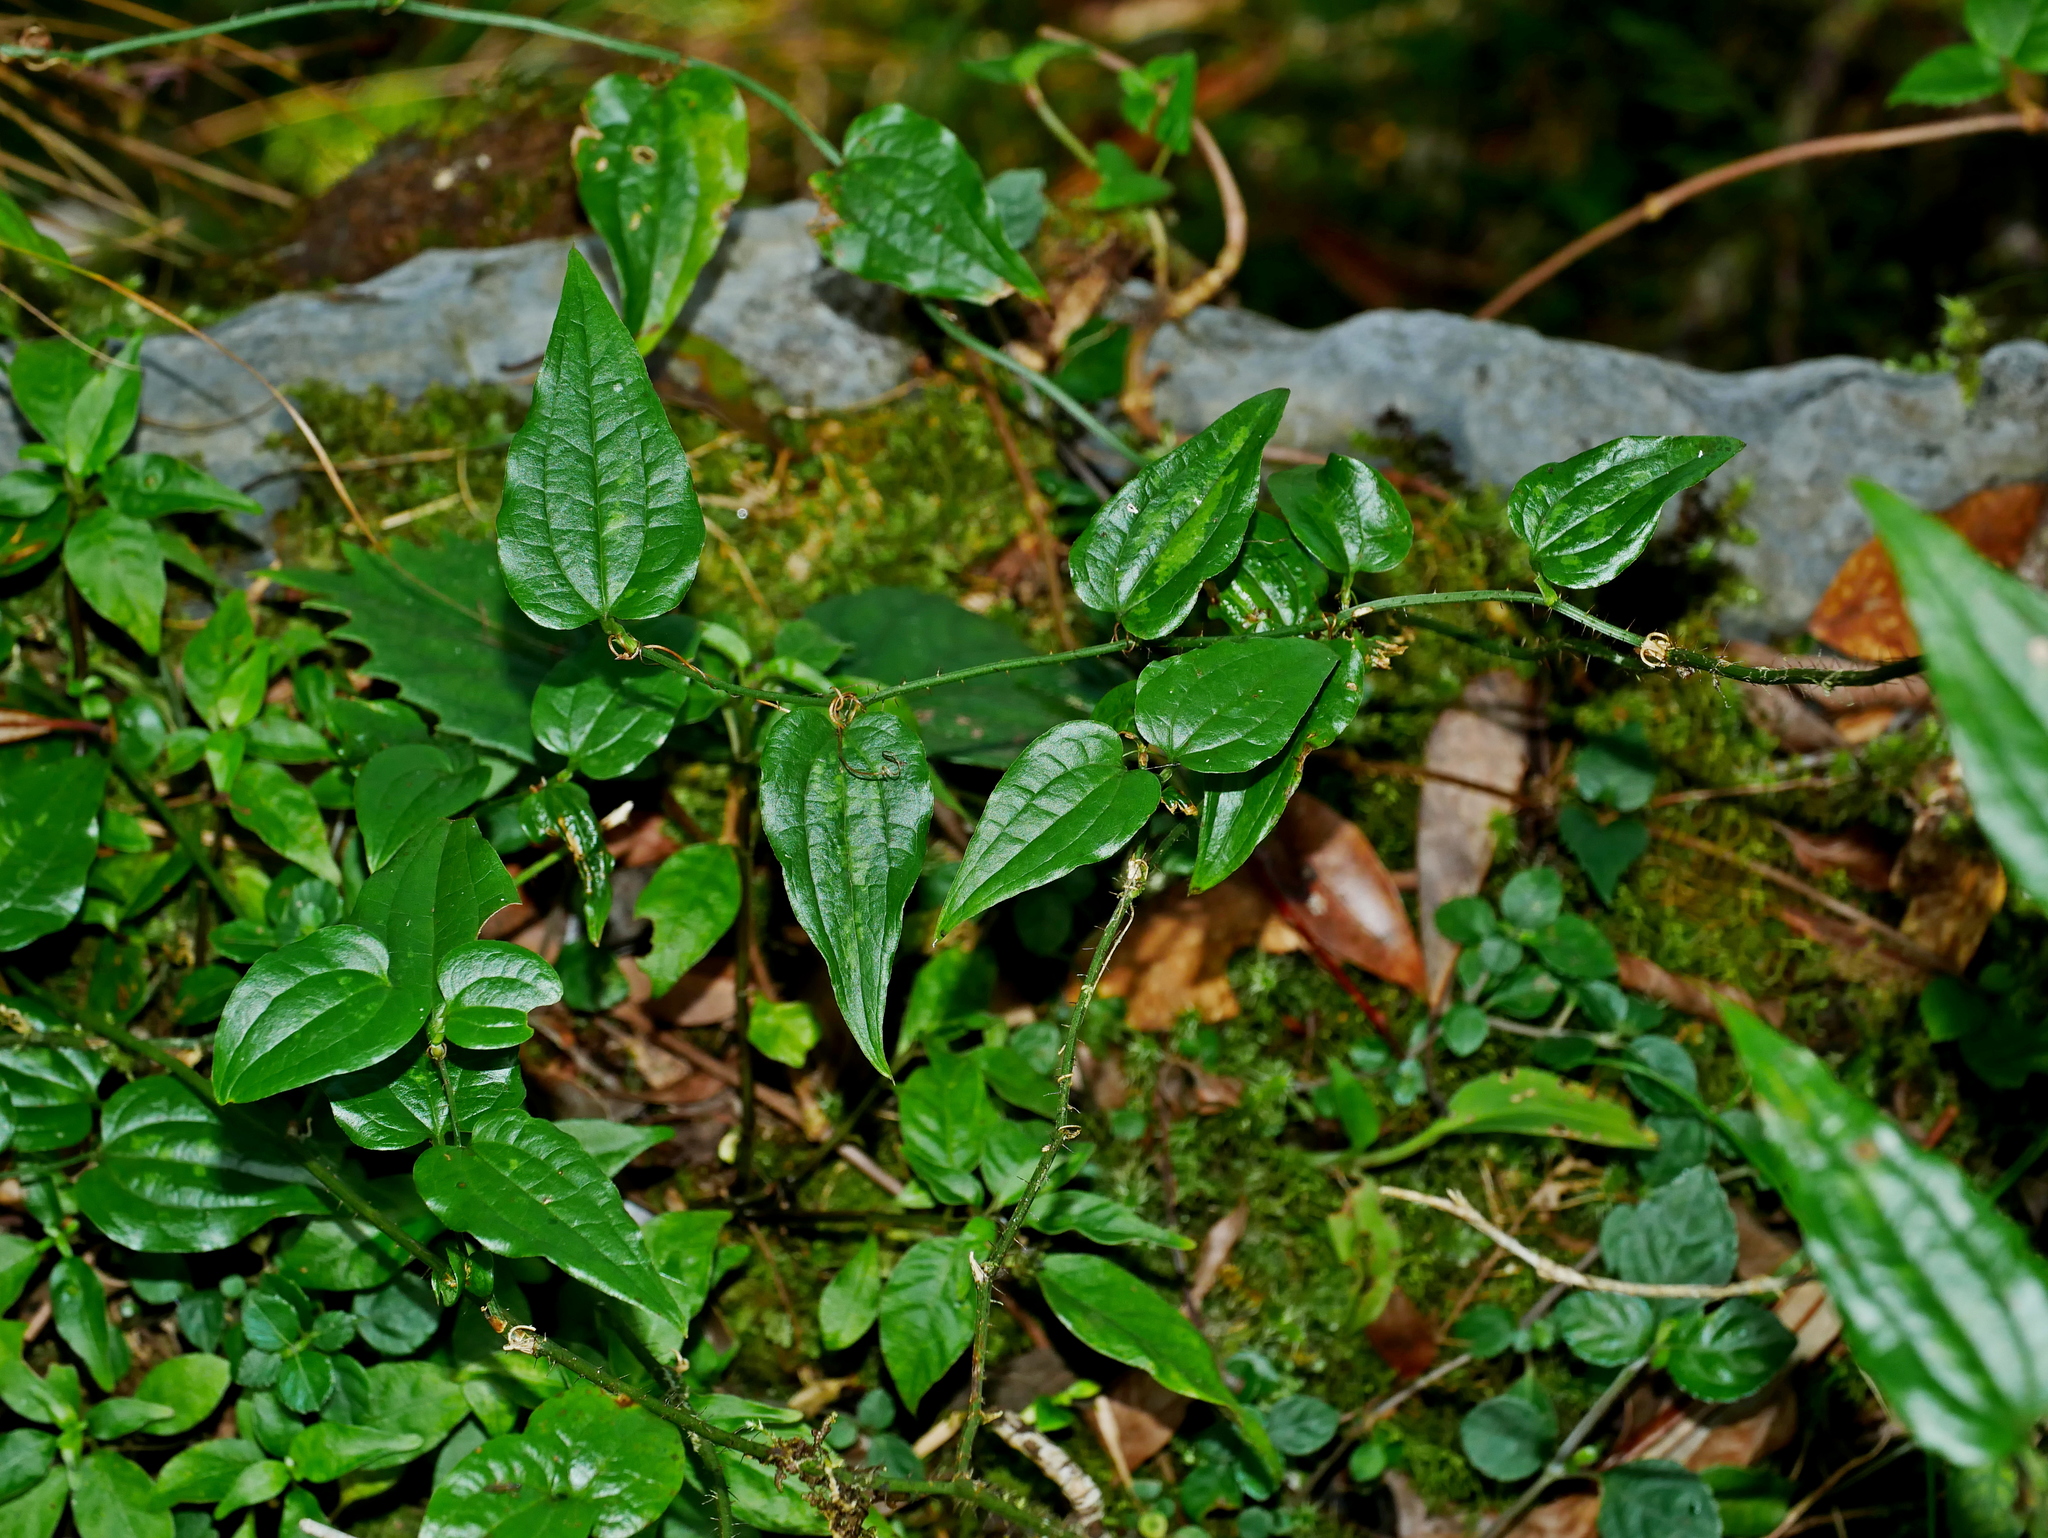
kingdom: Plantae
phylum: Tracheophyta
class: Liliopsida
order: Liliales
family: Smilacaceae
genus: Smilax
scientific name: Smilax sieboldii
